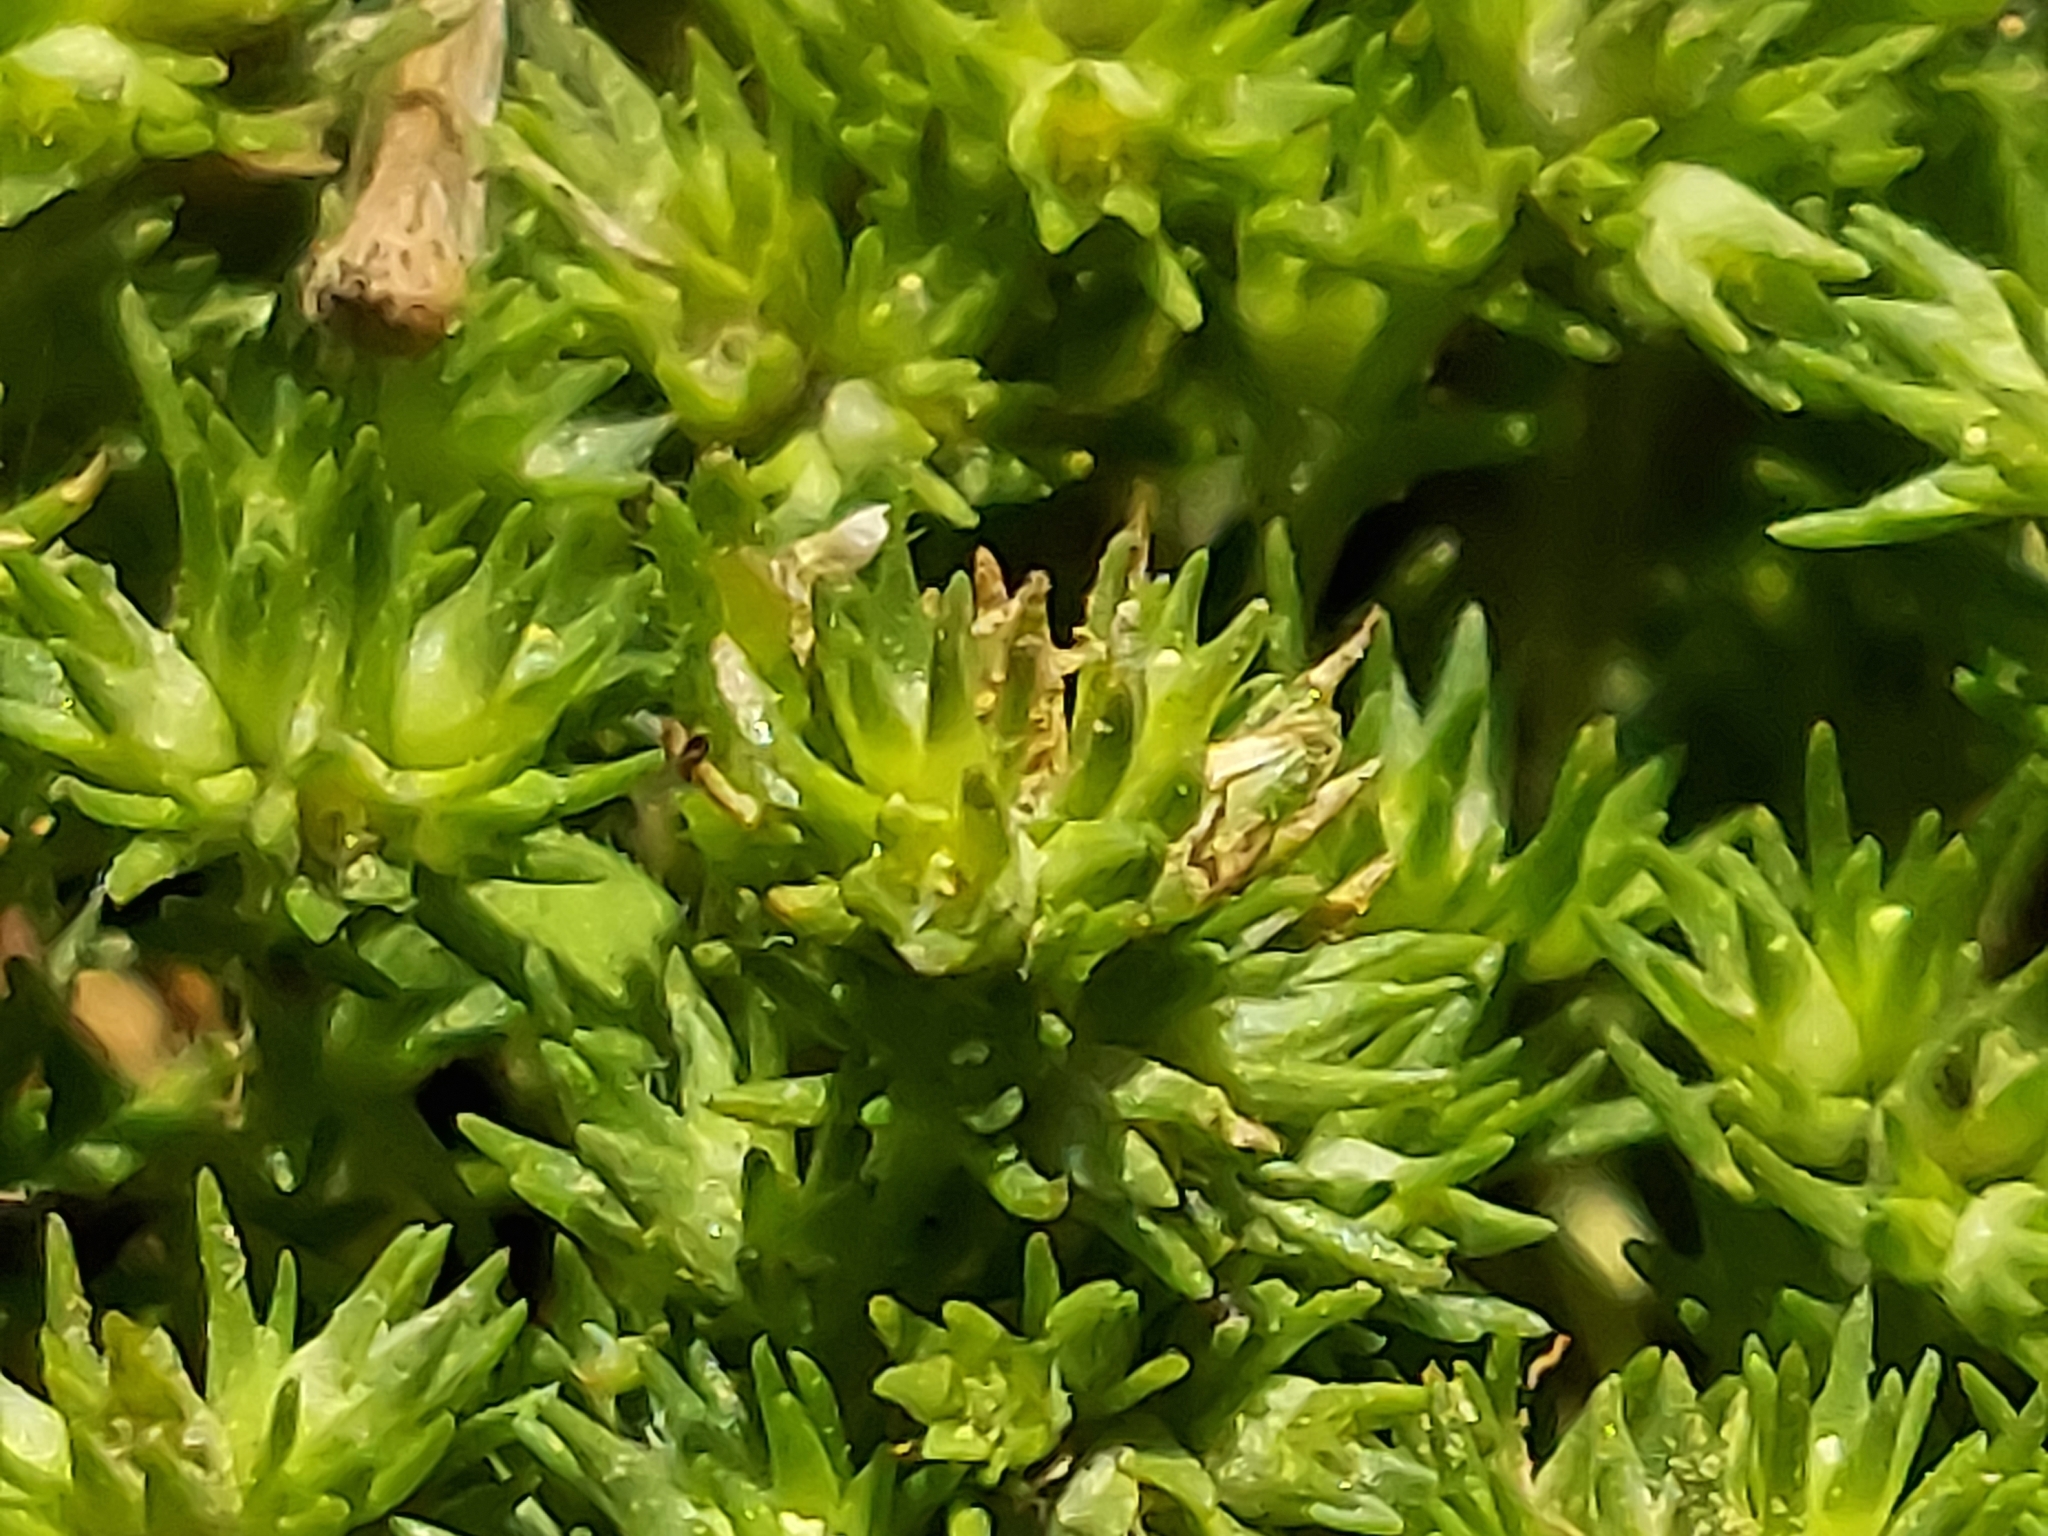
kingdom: Plantae
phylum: Tracheophyta
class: Magnoliopsida
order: Caryophyllales
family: Caryophyllaceae
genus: Scleranthus
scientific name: Scleranthus annuus
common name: Annual knawel
